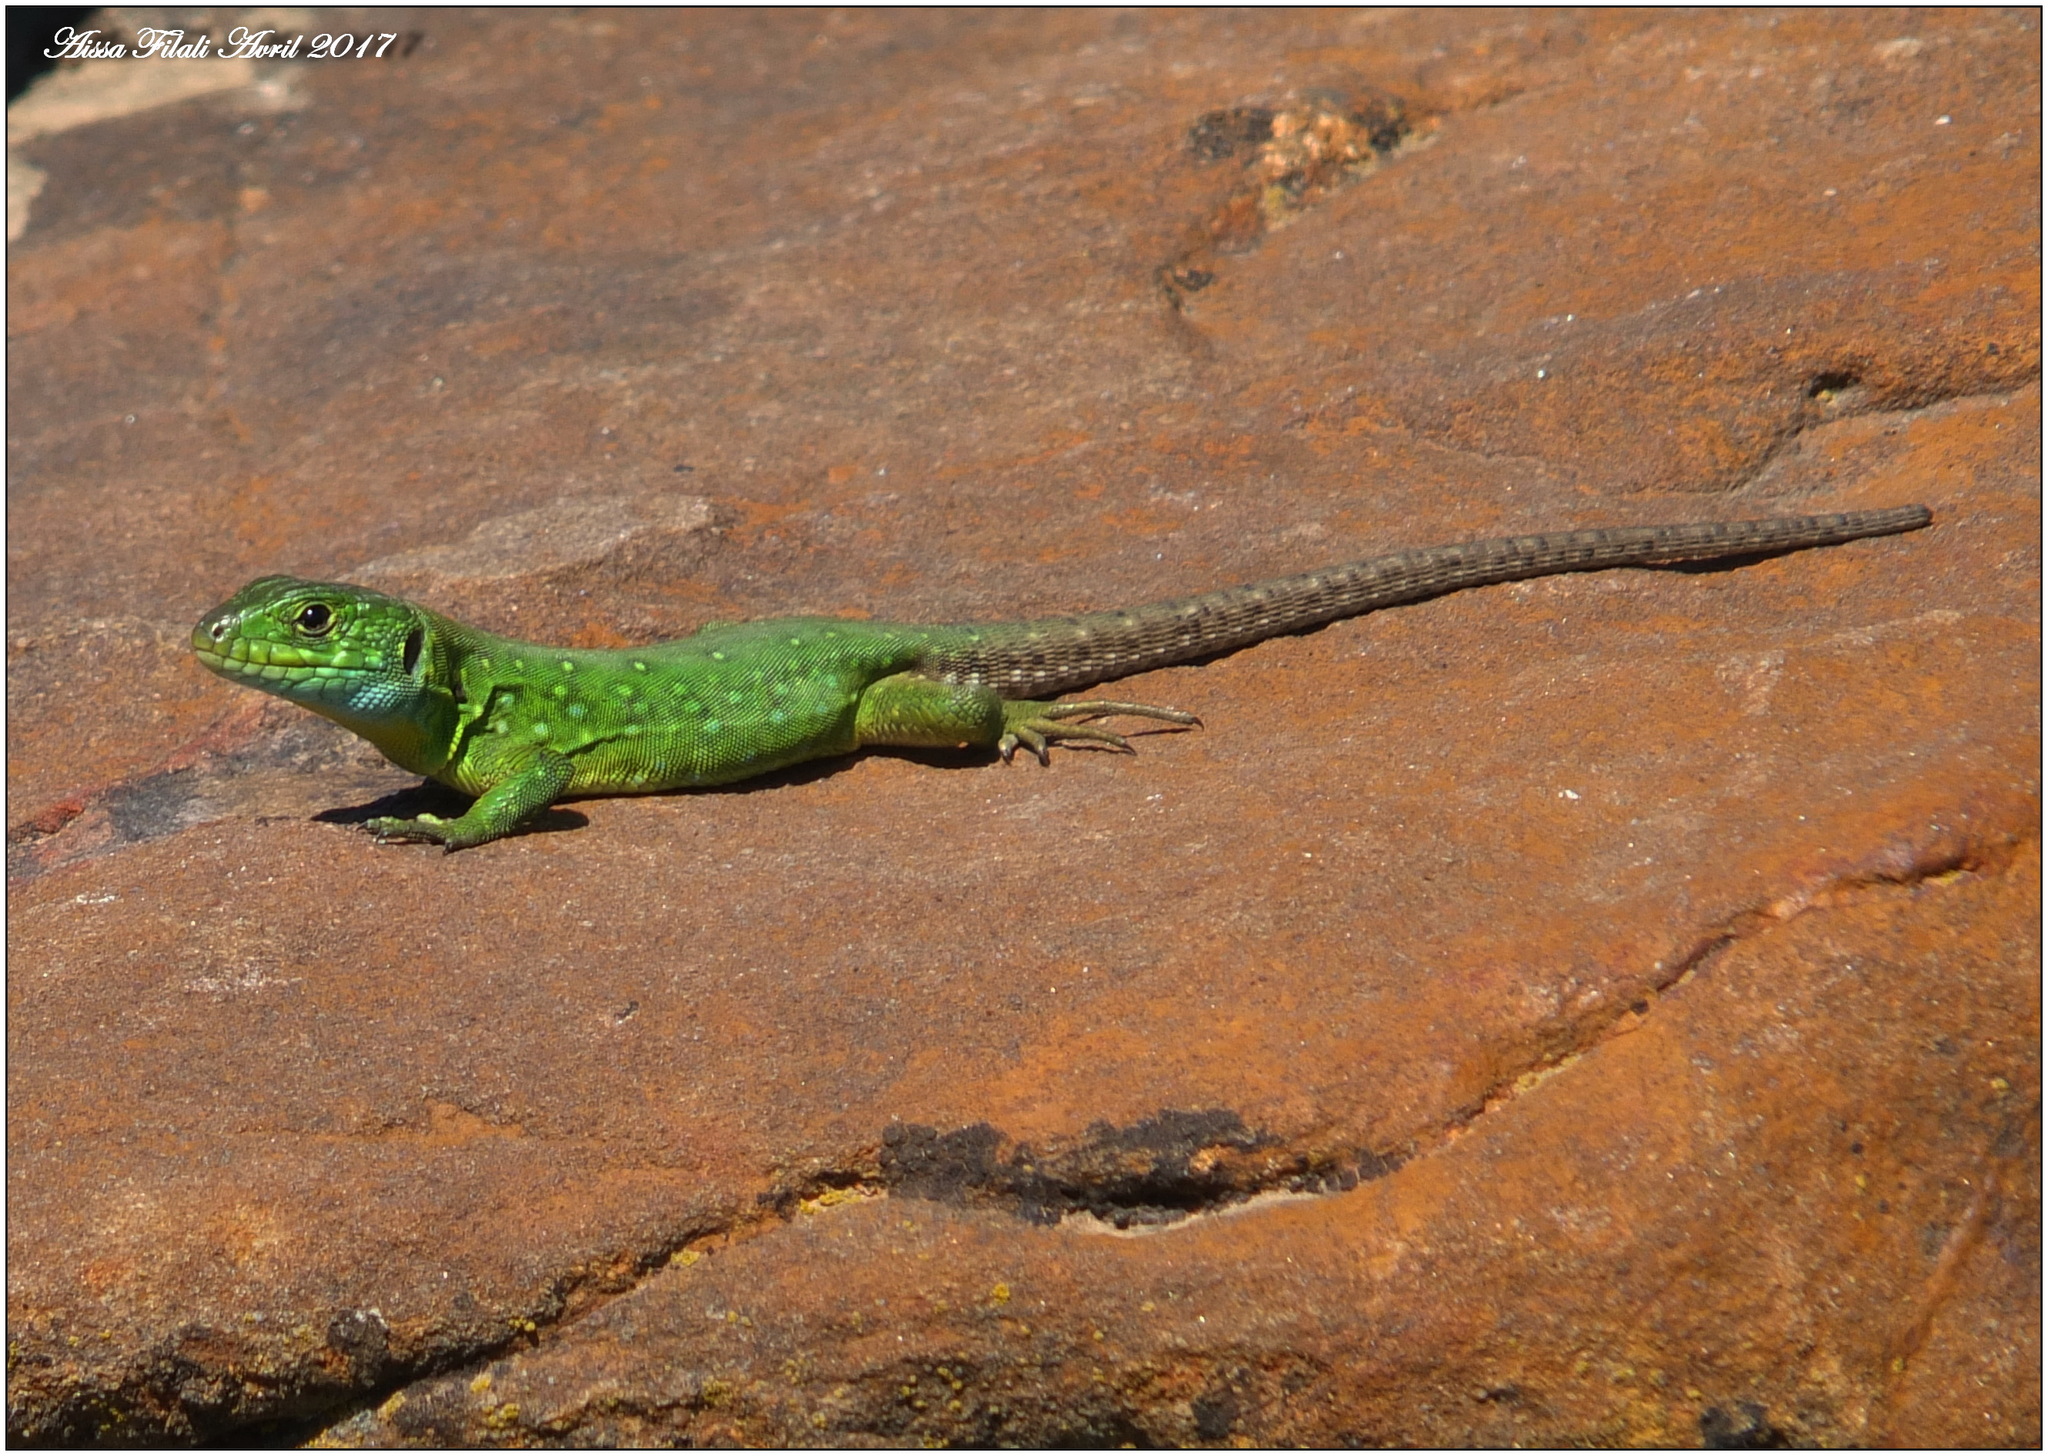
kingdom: Animalia
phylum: Chordata
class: Squamata
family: Lacertidae
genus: Timon
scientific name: Timon pater
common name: North african ocellated lizard
